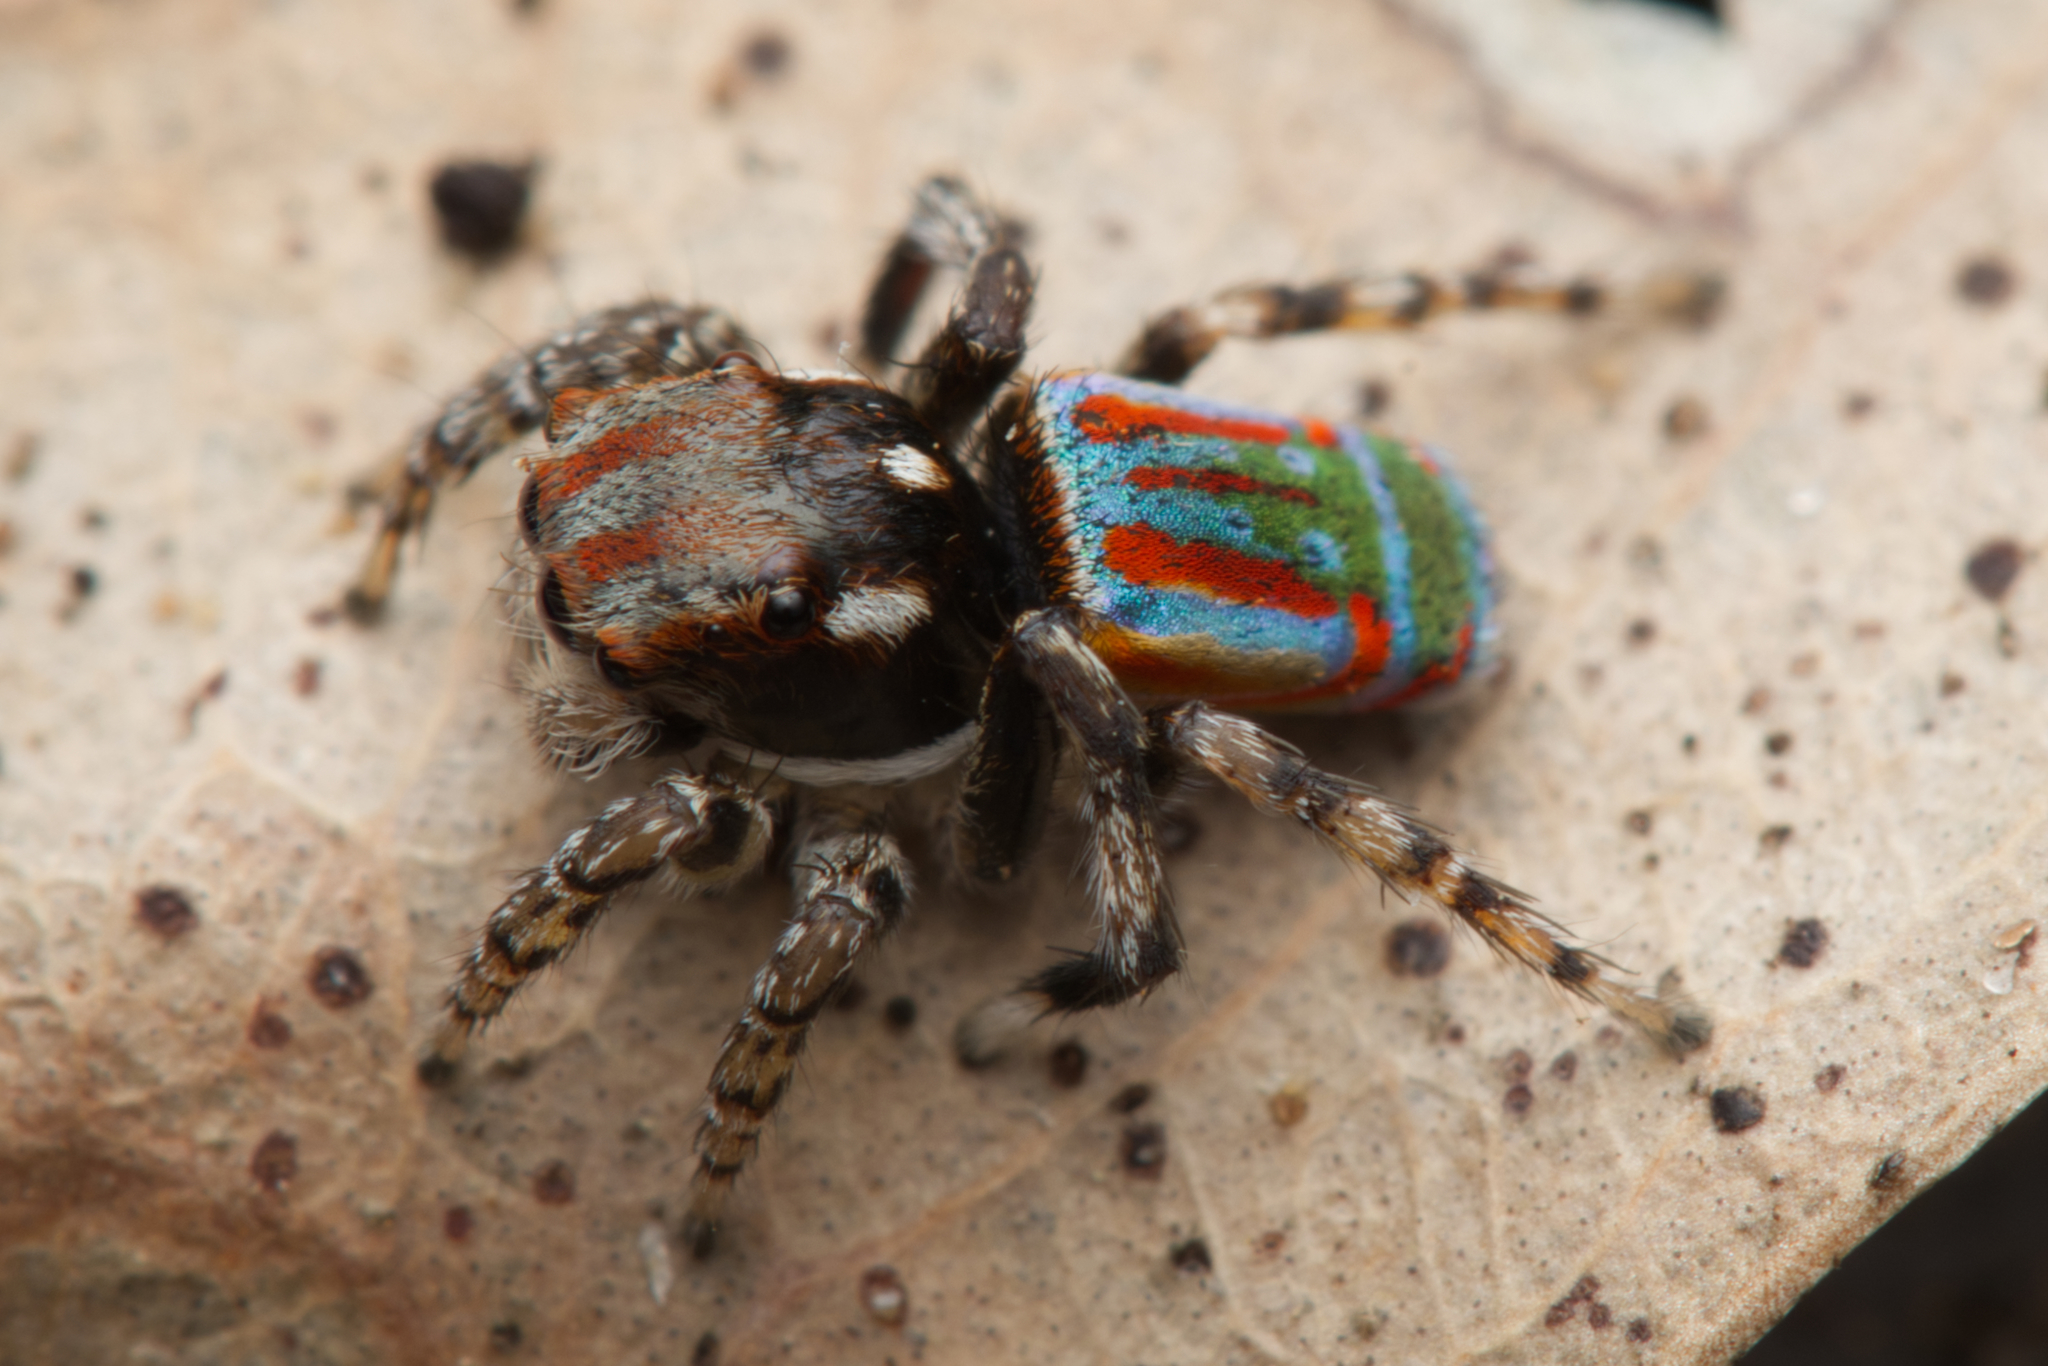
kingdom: Animalia
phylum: Arthropoda
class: Arachnida
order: Araneae
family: Salticidae
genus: Maratus
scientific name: Maratus volans
